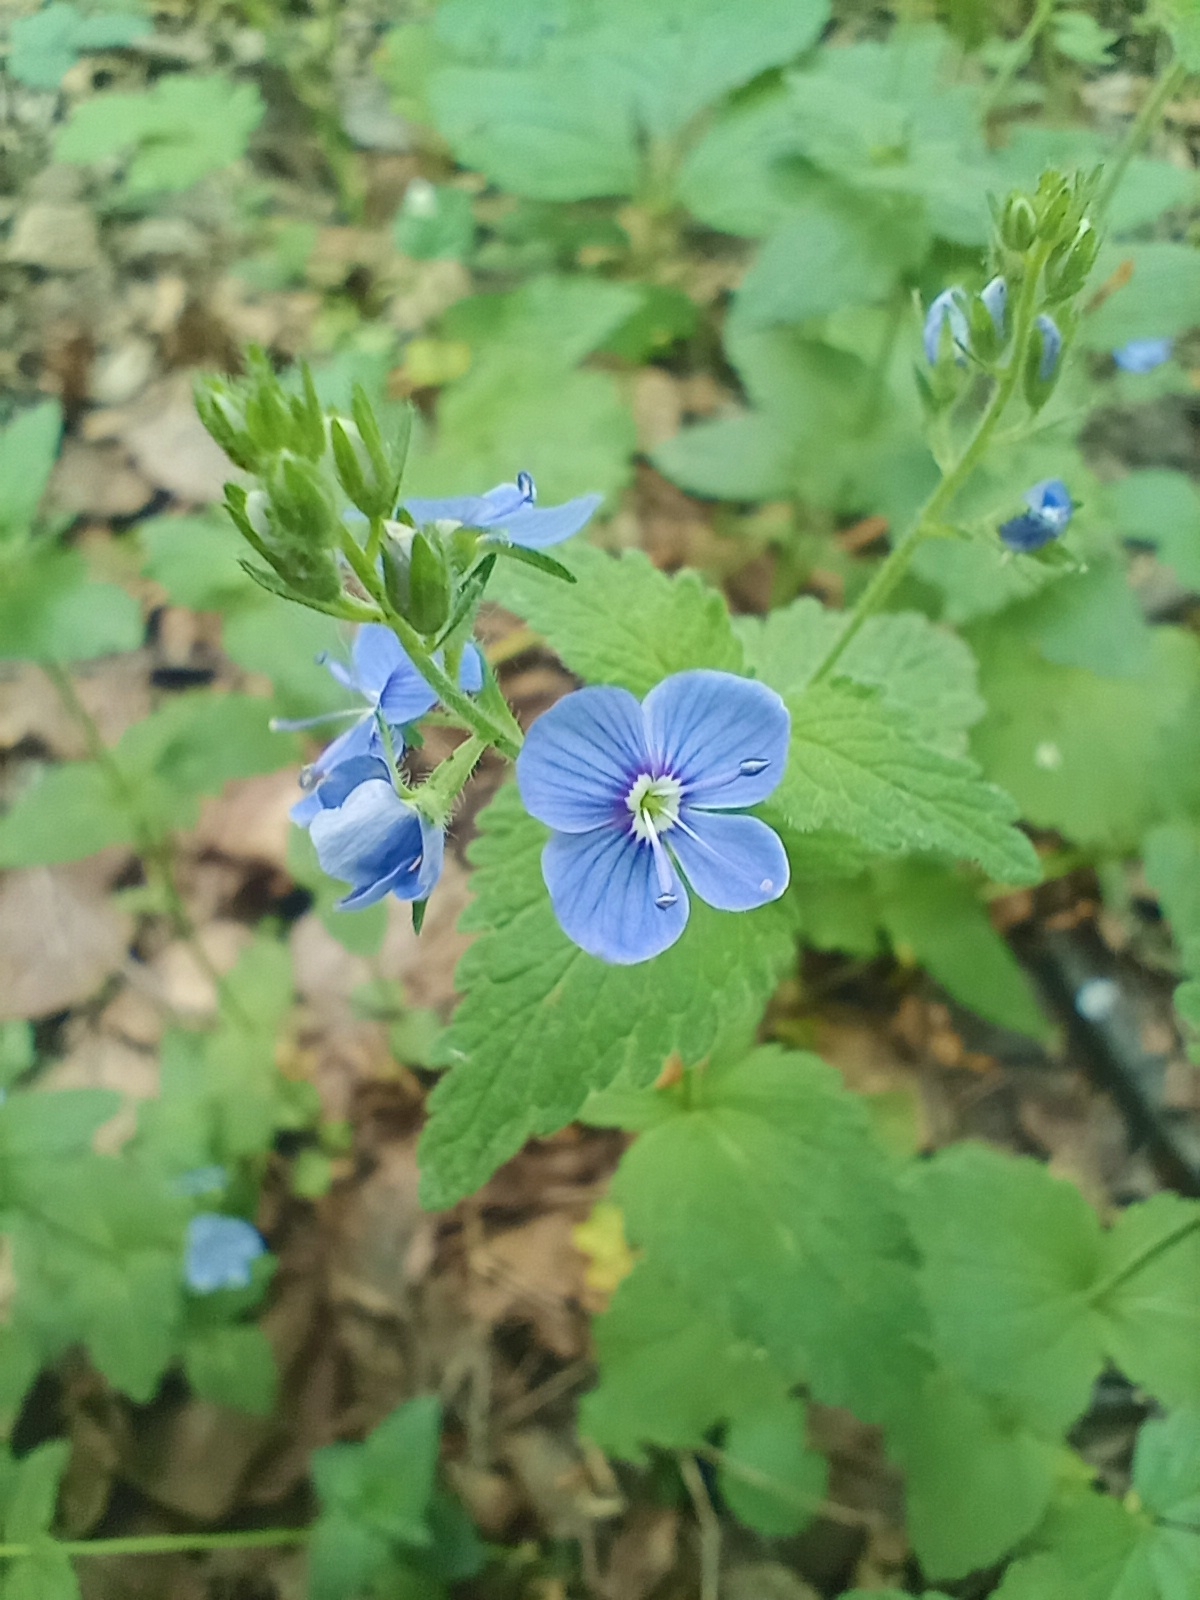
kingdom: Plantae
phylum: Tracheophyta
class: Magnoliopsida
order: Lamiales
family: Plantaginaceae
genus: Veronica
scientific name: Veronica chamaedrys
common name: Germander speedwell
